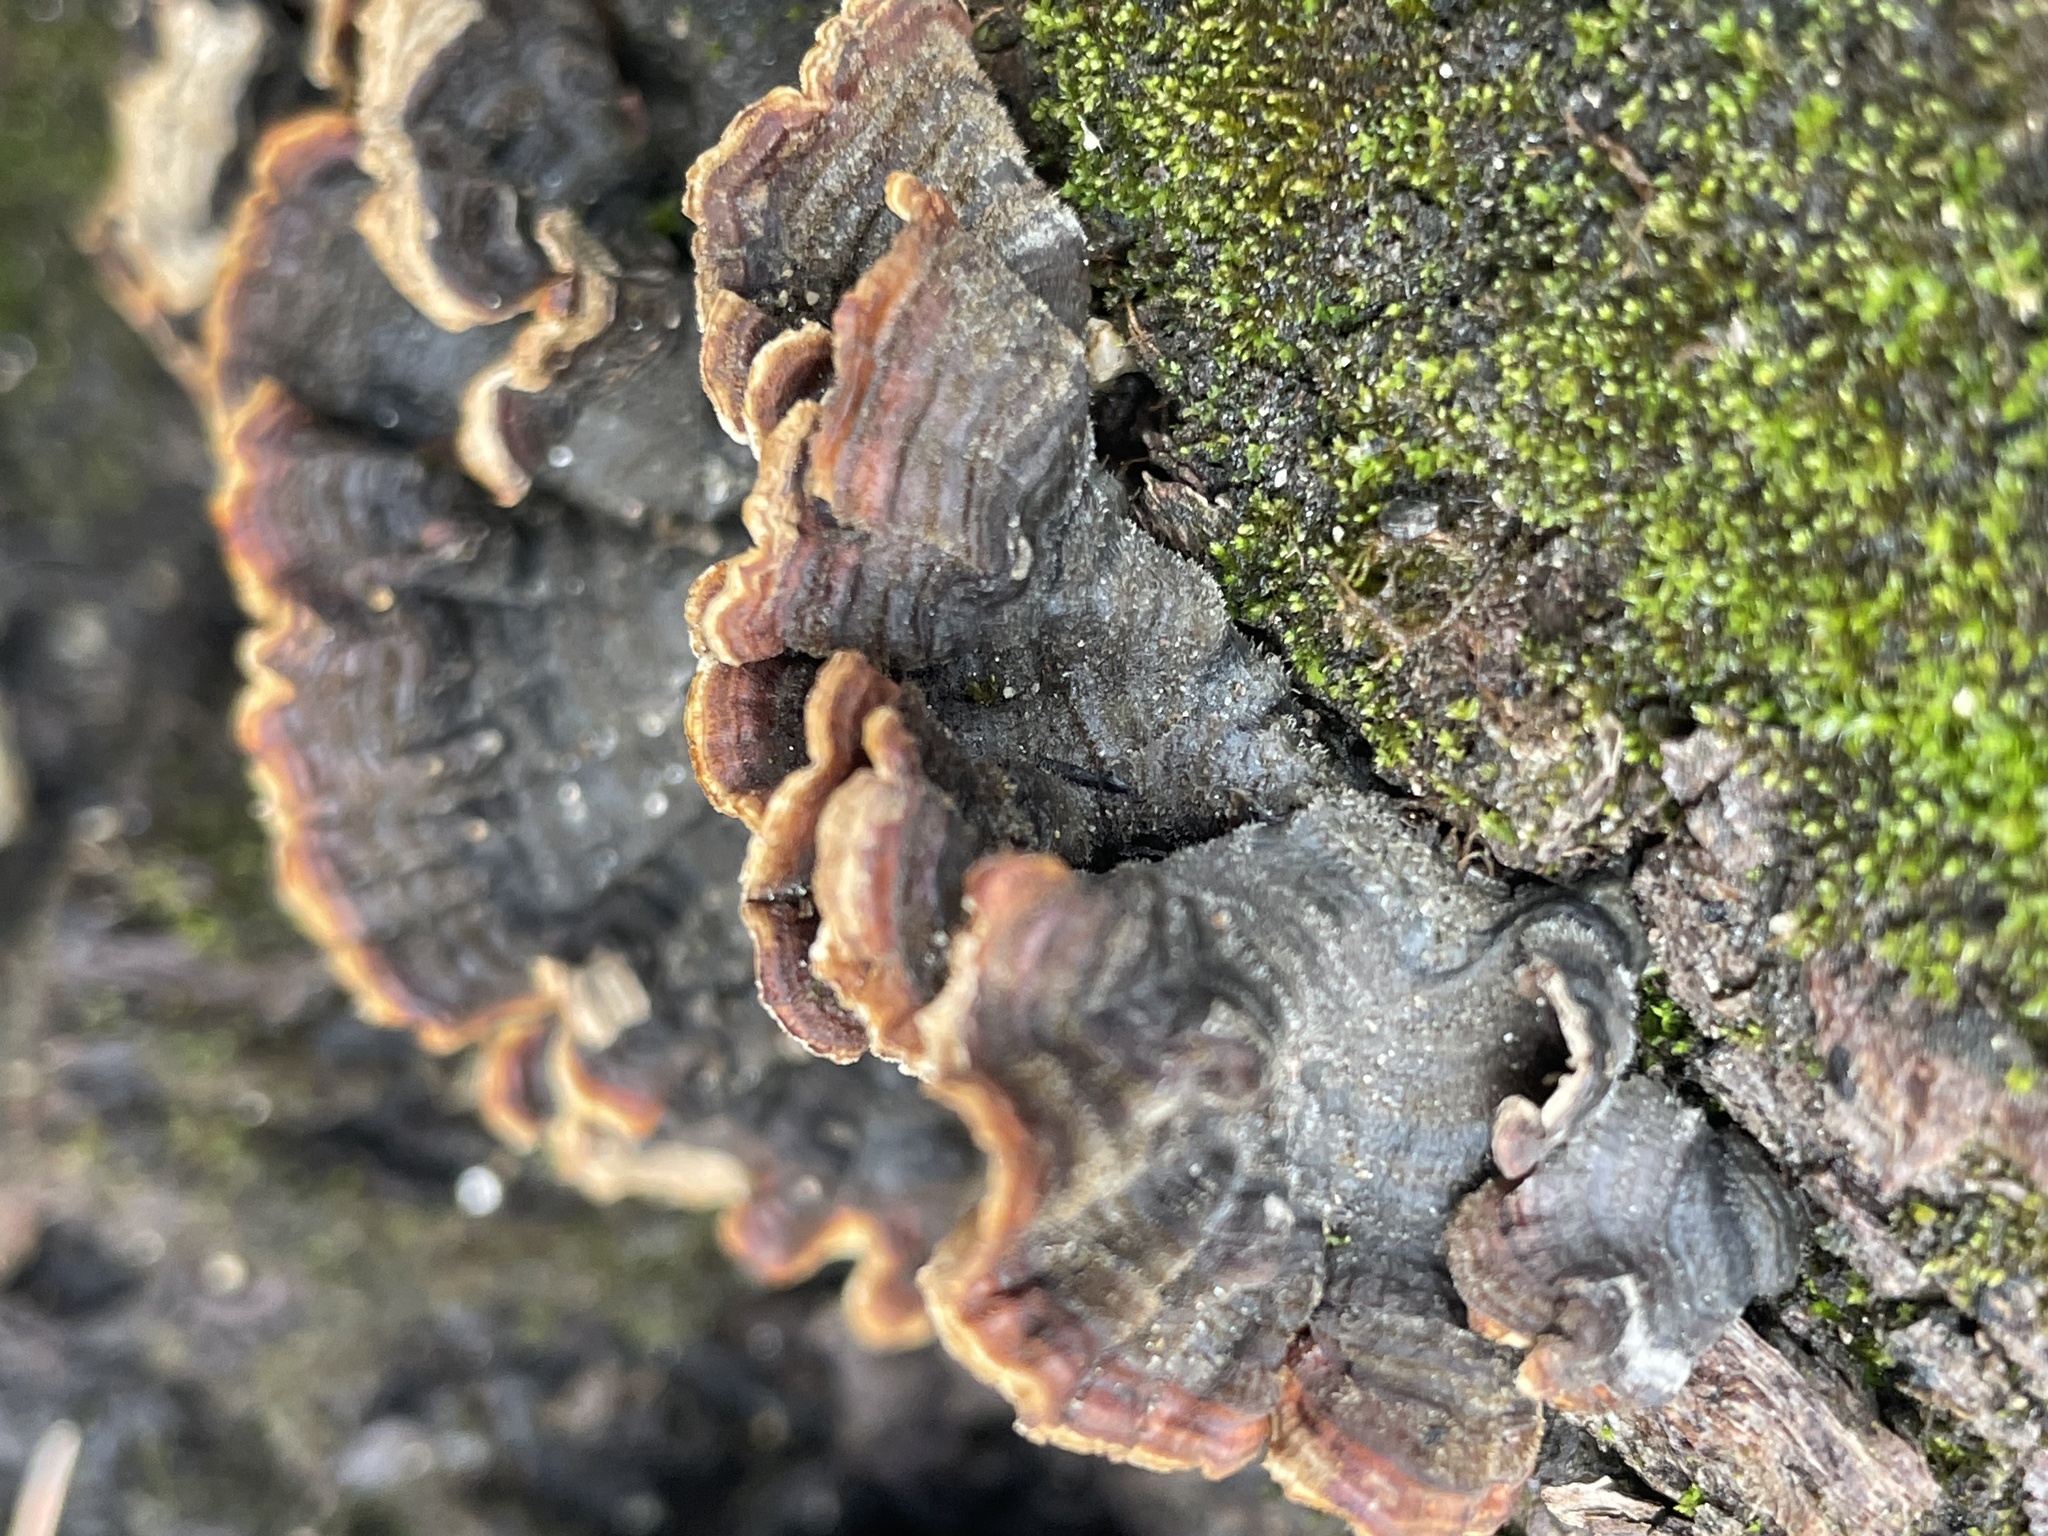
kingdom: Fungi
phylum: Basidiomycota
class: Agaricomycetes
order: Russulales
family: Stereaceae
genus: Stereum
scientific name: Stereum hirsutum
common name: Hairy curtain crust
